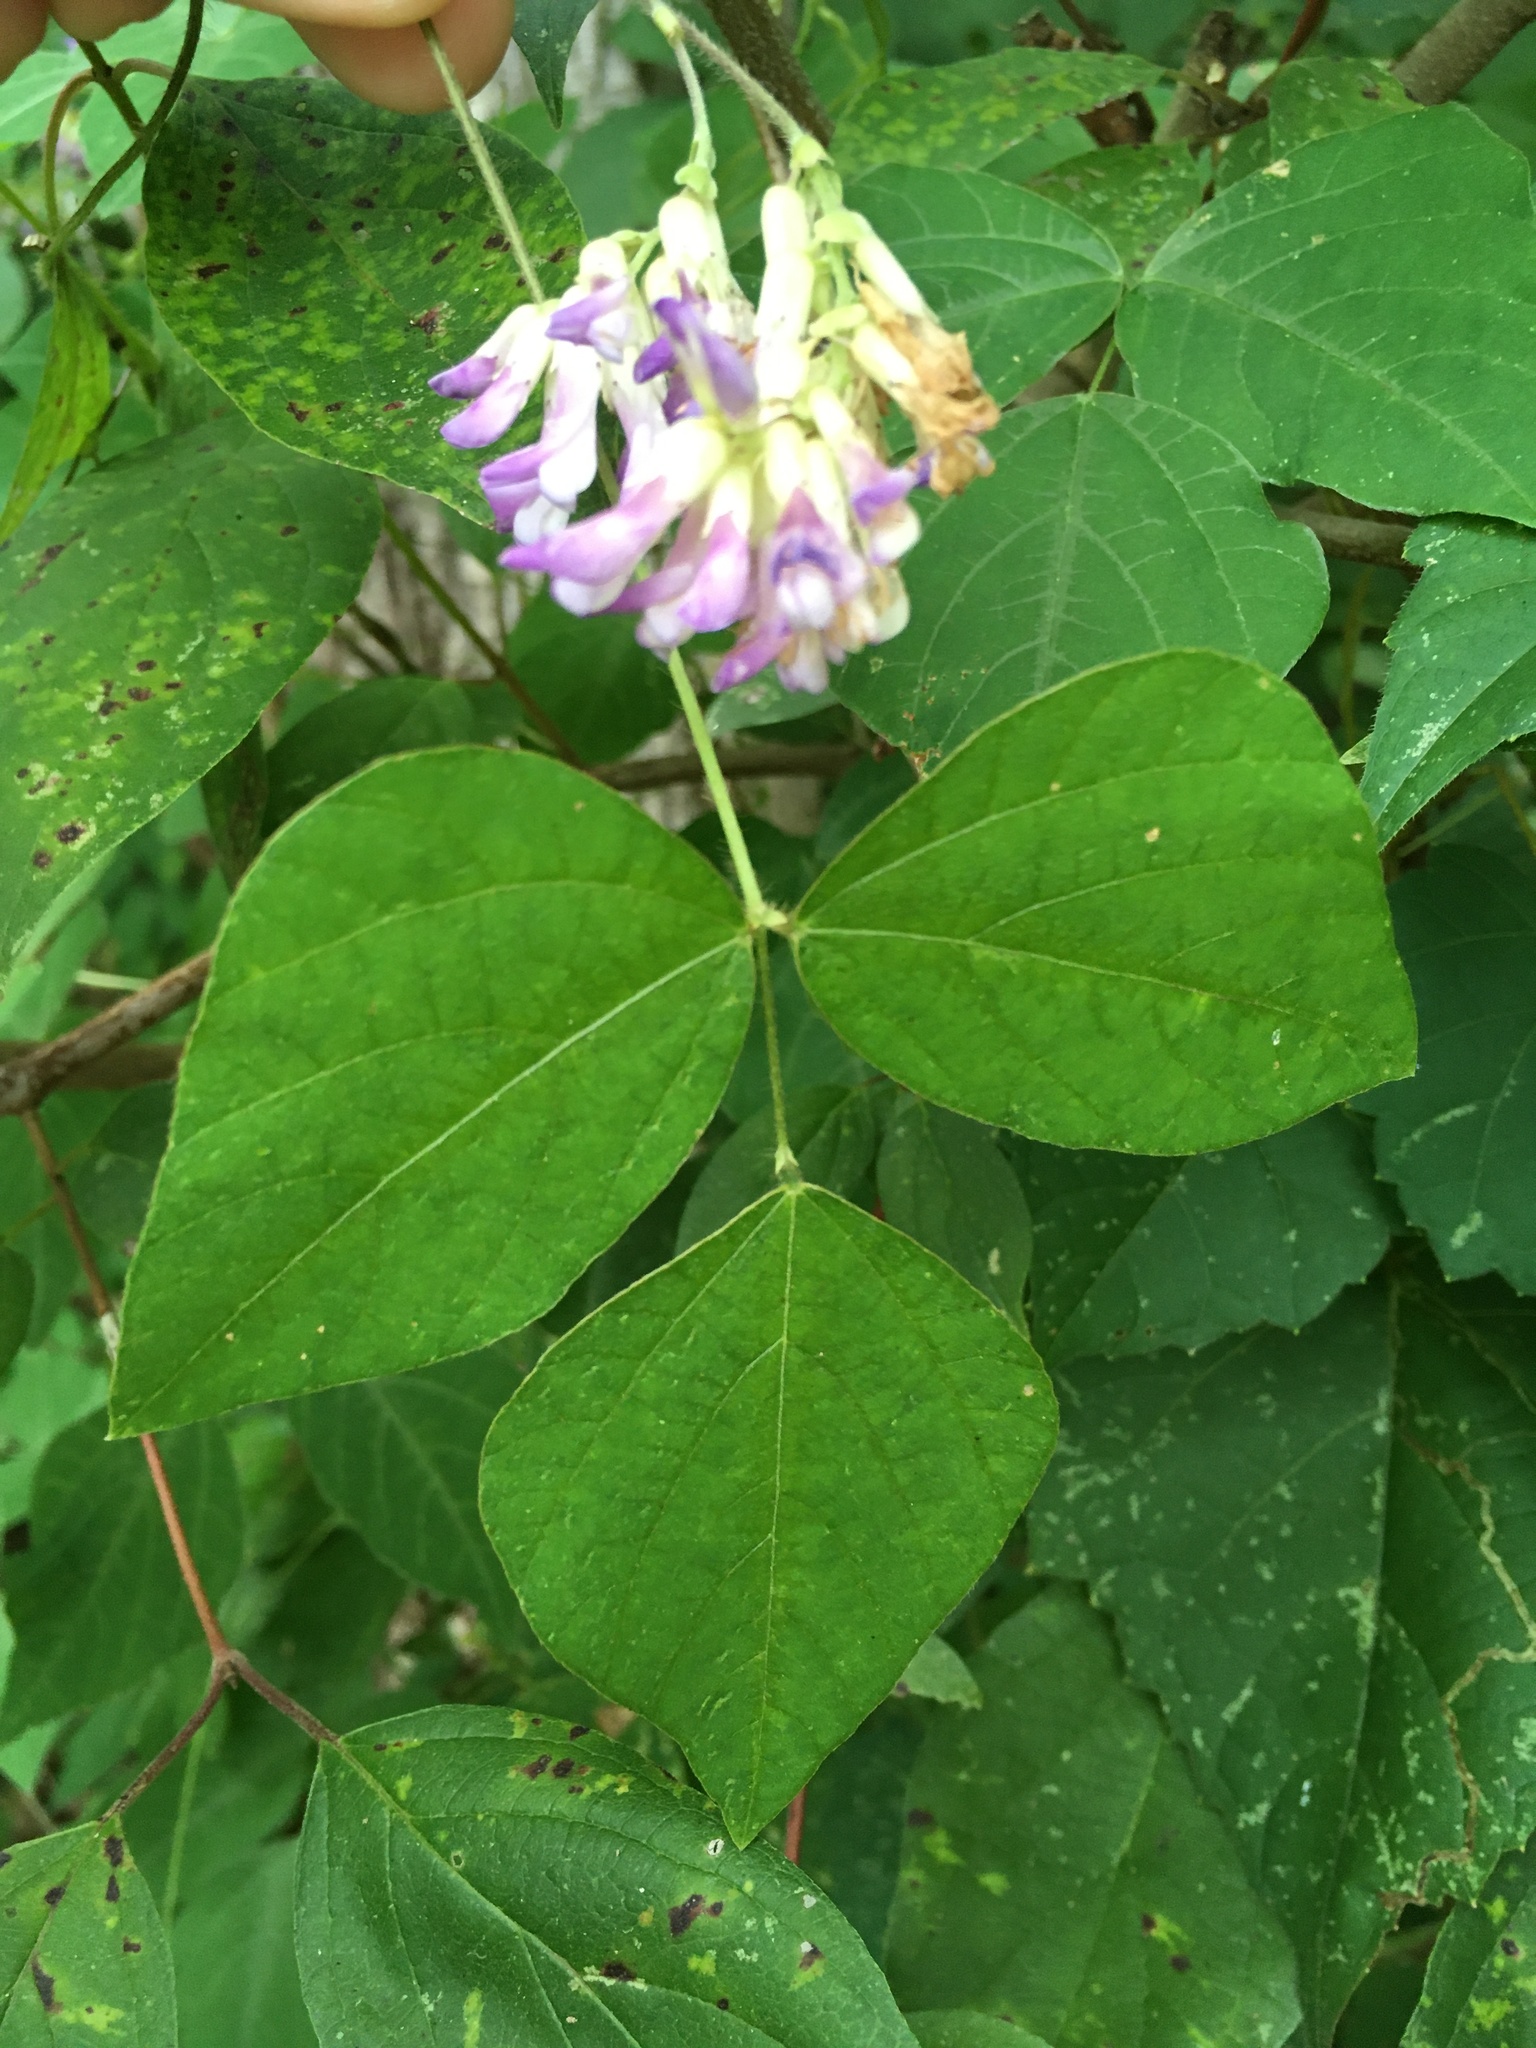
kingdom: Plantae
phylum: Tracheophyta
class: Magnoliopsida
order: Fabales
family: Fabaceae
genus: Amphicarpaea
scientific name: Amphicarpaea bracteata
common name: American hog peanut
